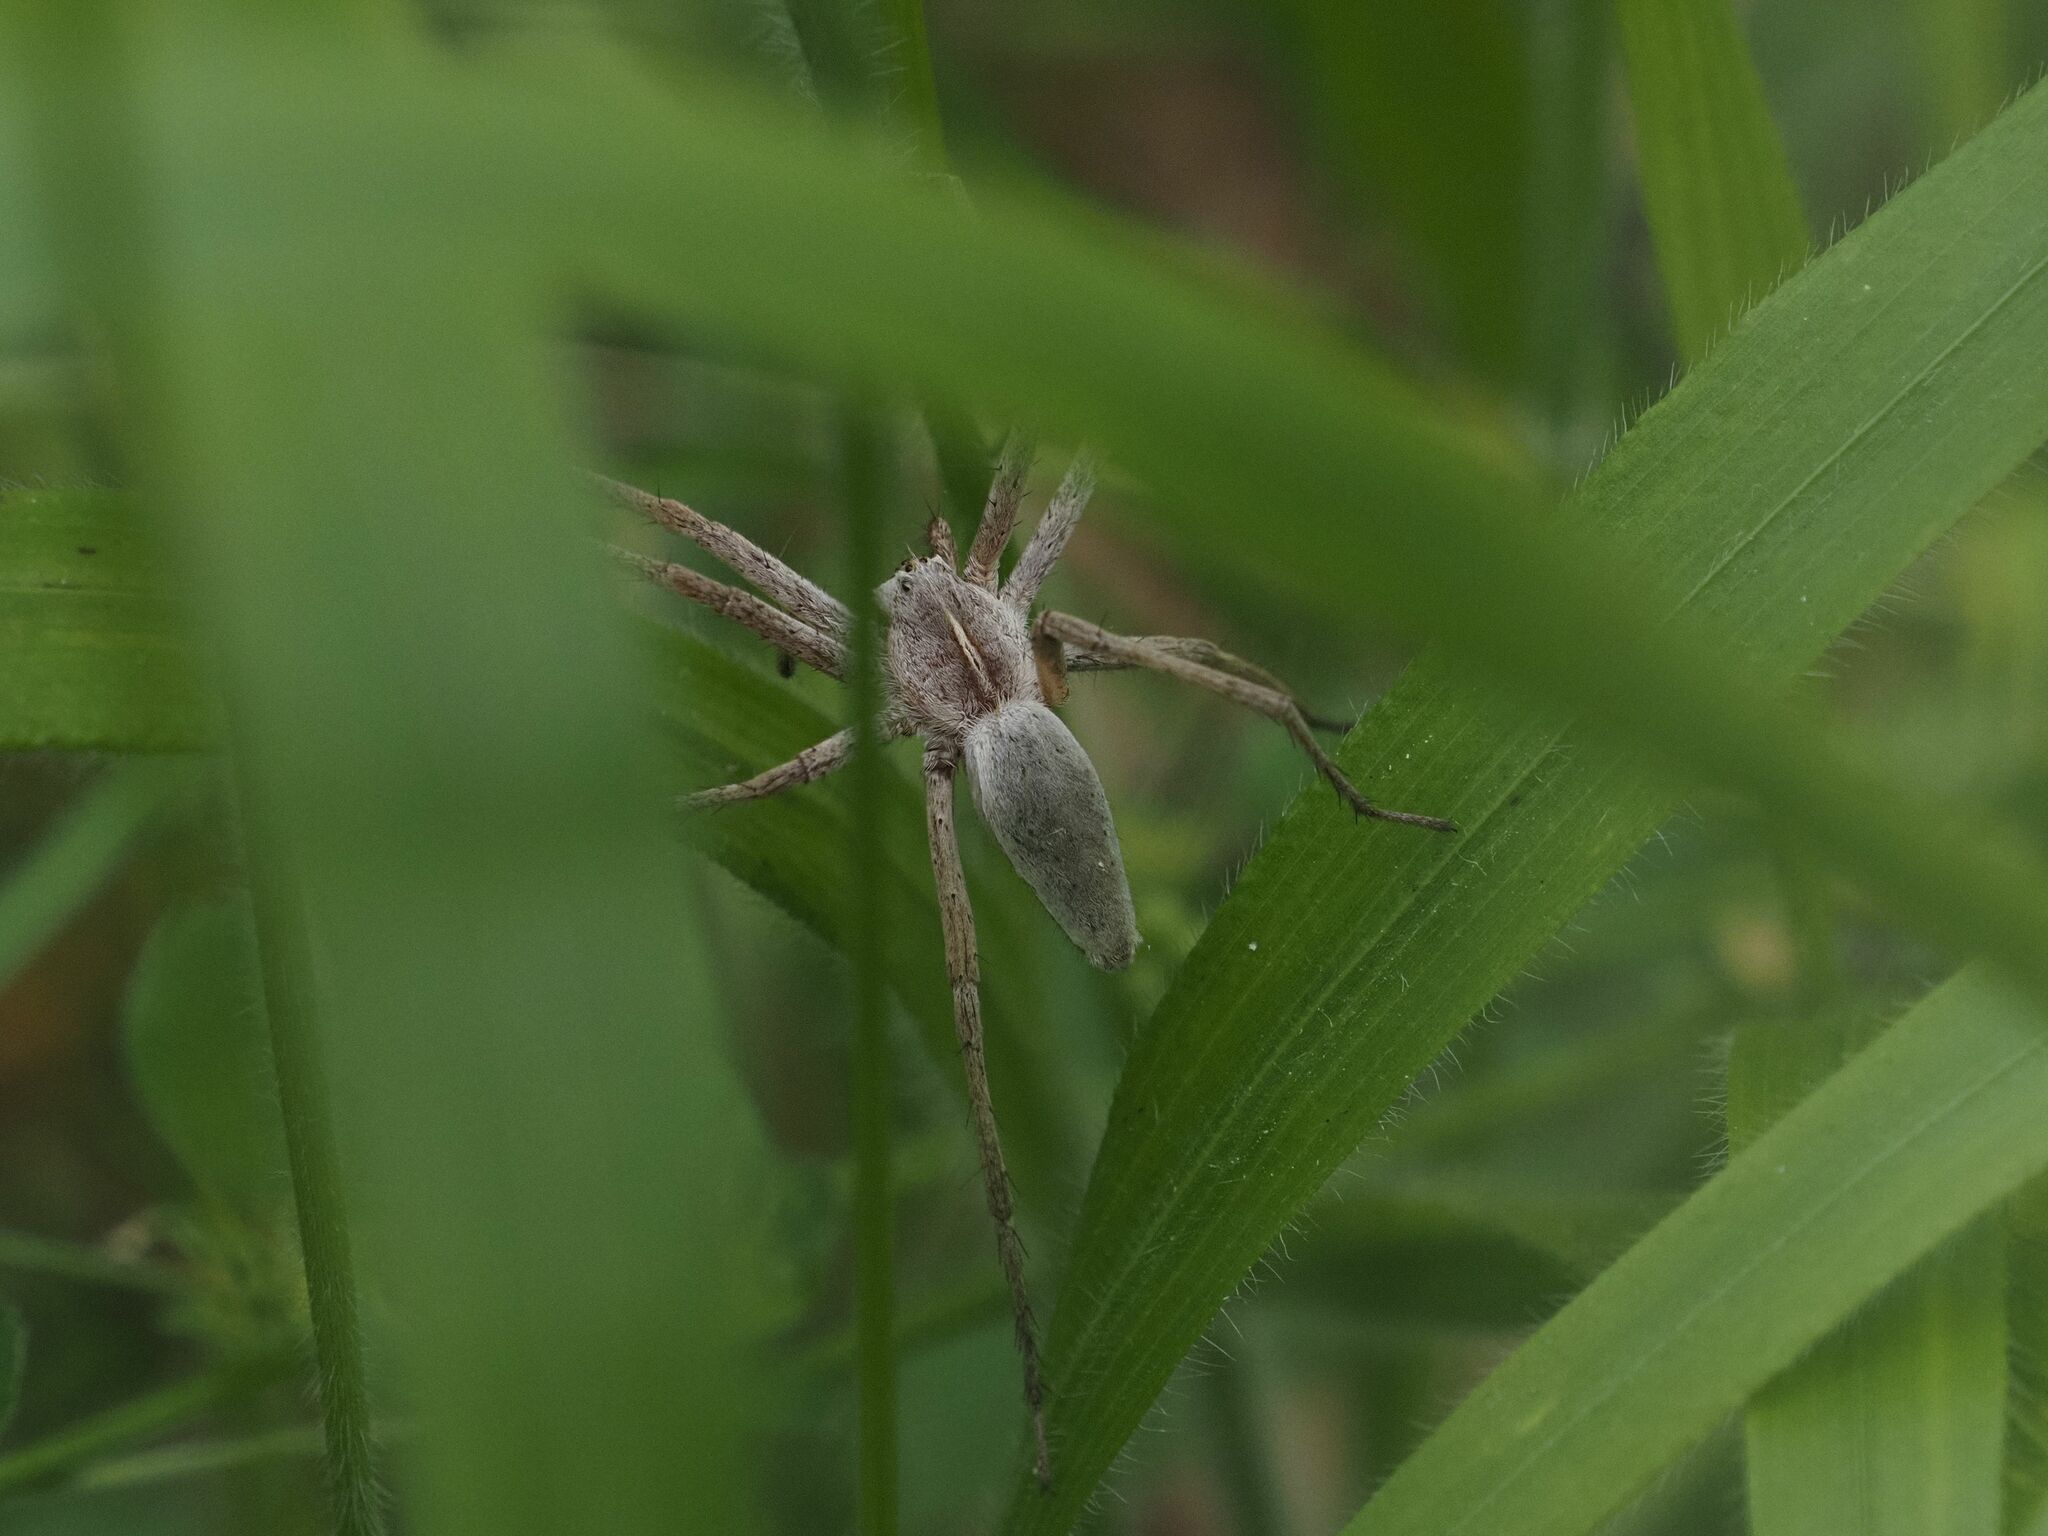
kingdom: Animalia
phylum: Arthropoda
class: Arachnida
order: Araneae
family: Pisauridae
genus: Pisaura
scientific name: Pisaura mirabilis
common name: Tent spider
